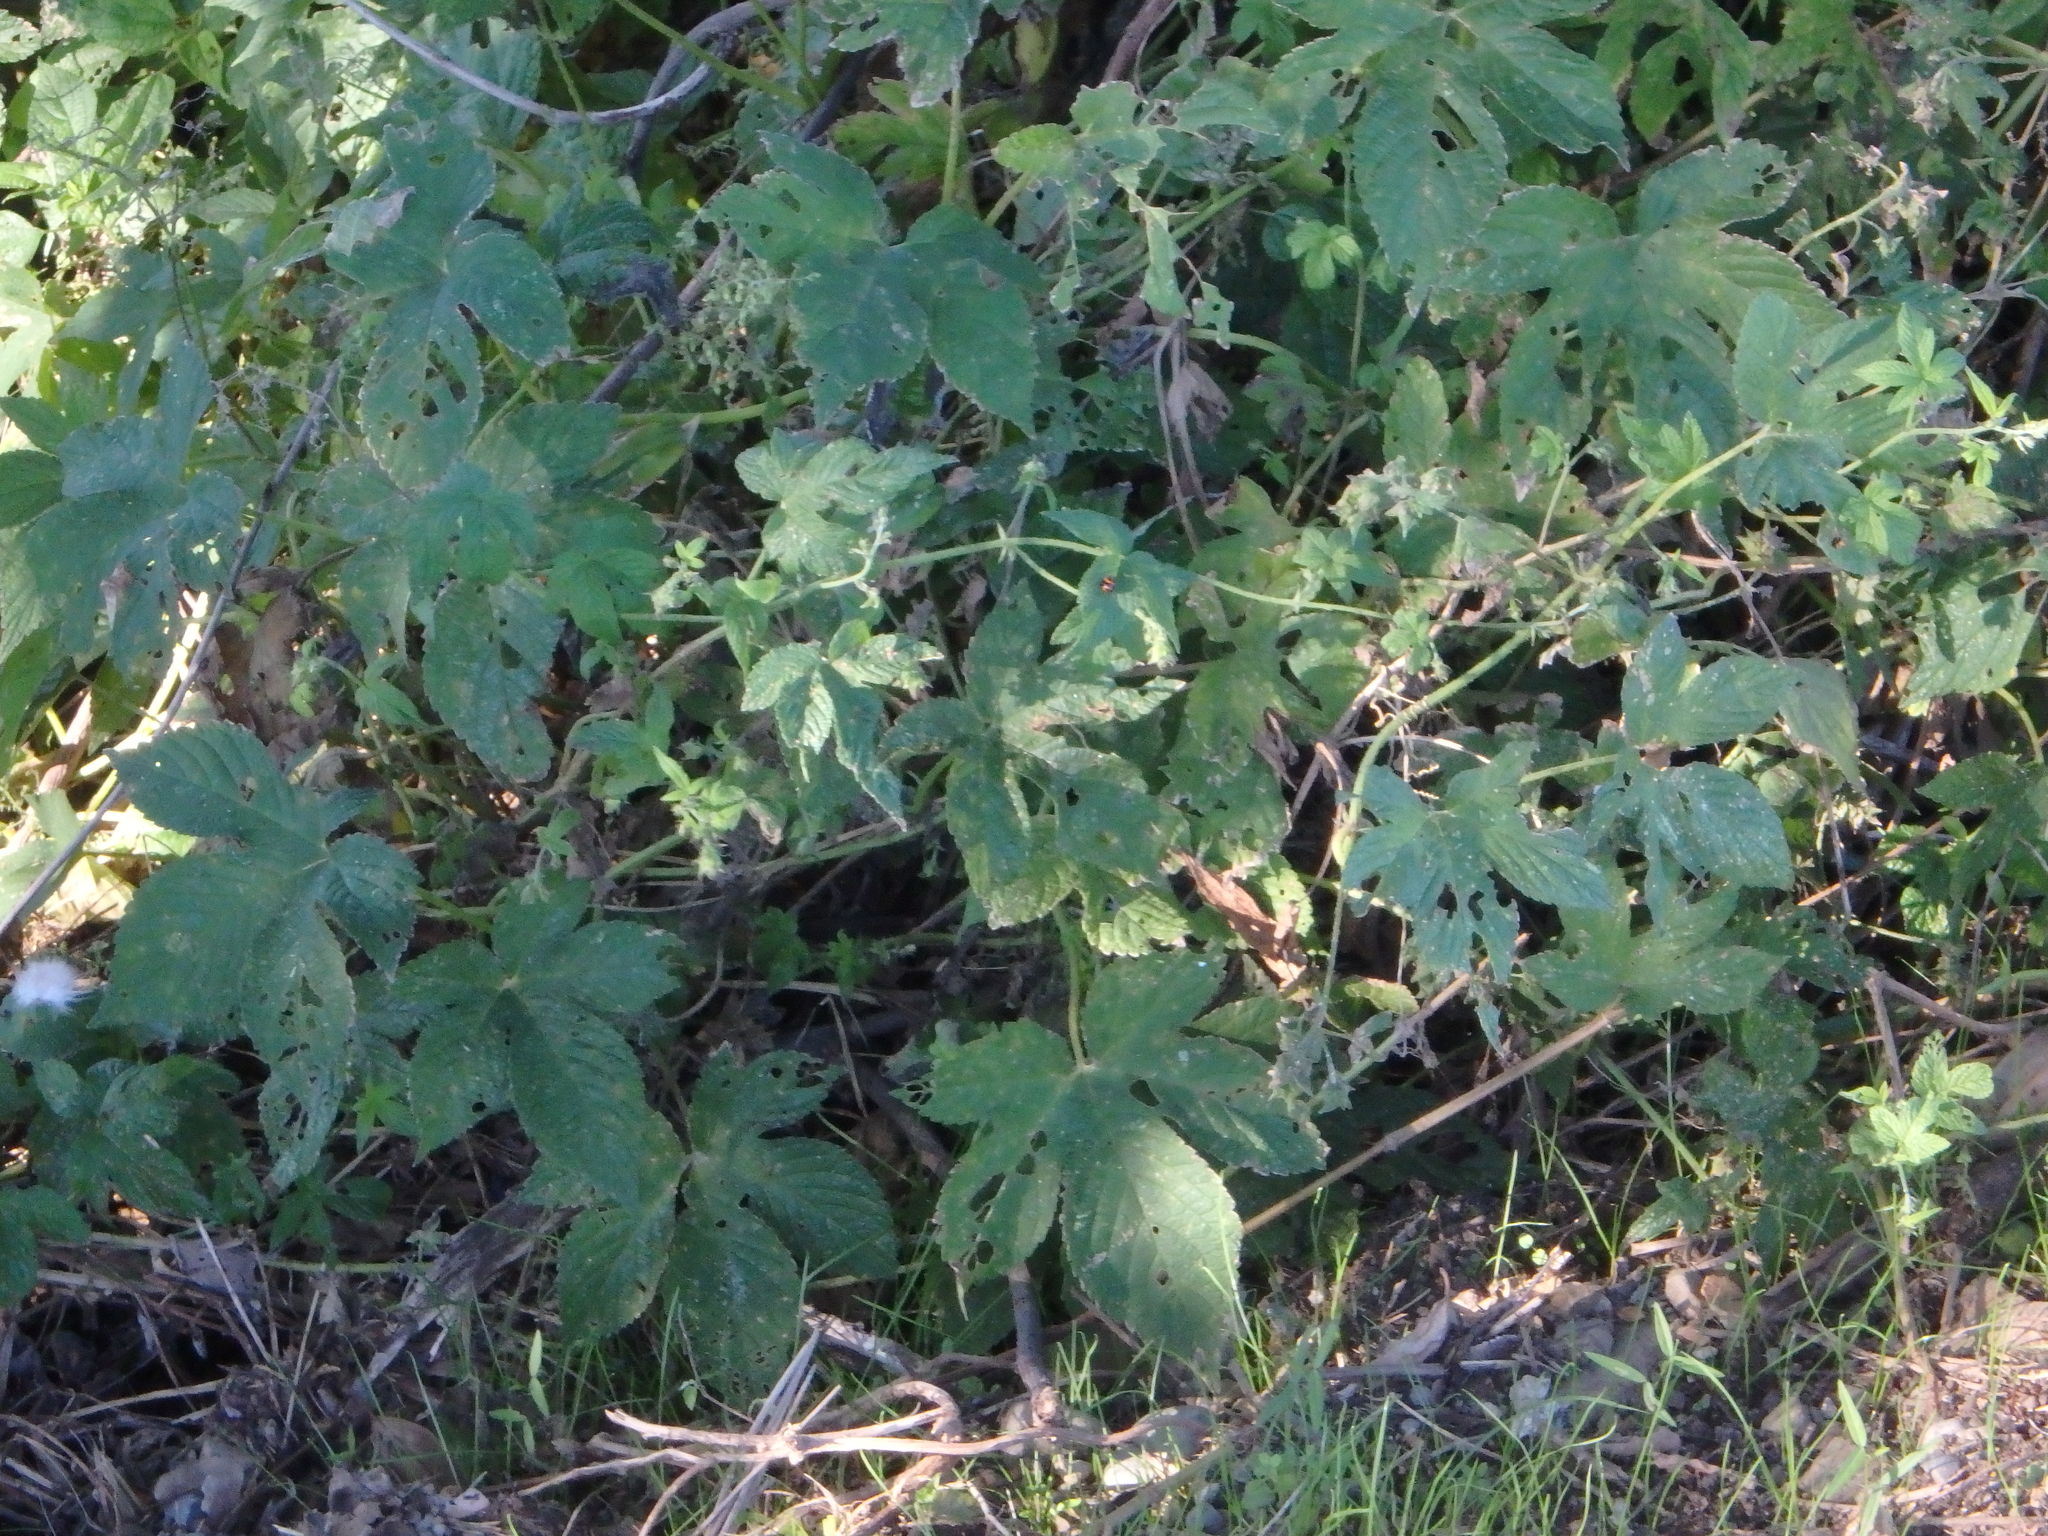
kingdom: Plantae
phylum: Tracheophyta
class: Magnoliopsida
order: Rosales
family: Cannabaceae
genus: Humulus
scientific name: Humulus scandens
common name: Japanese hop
